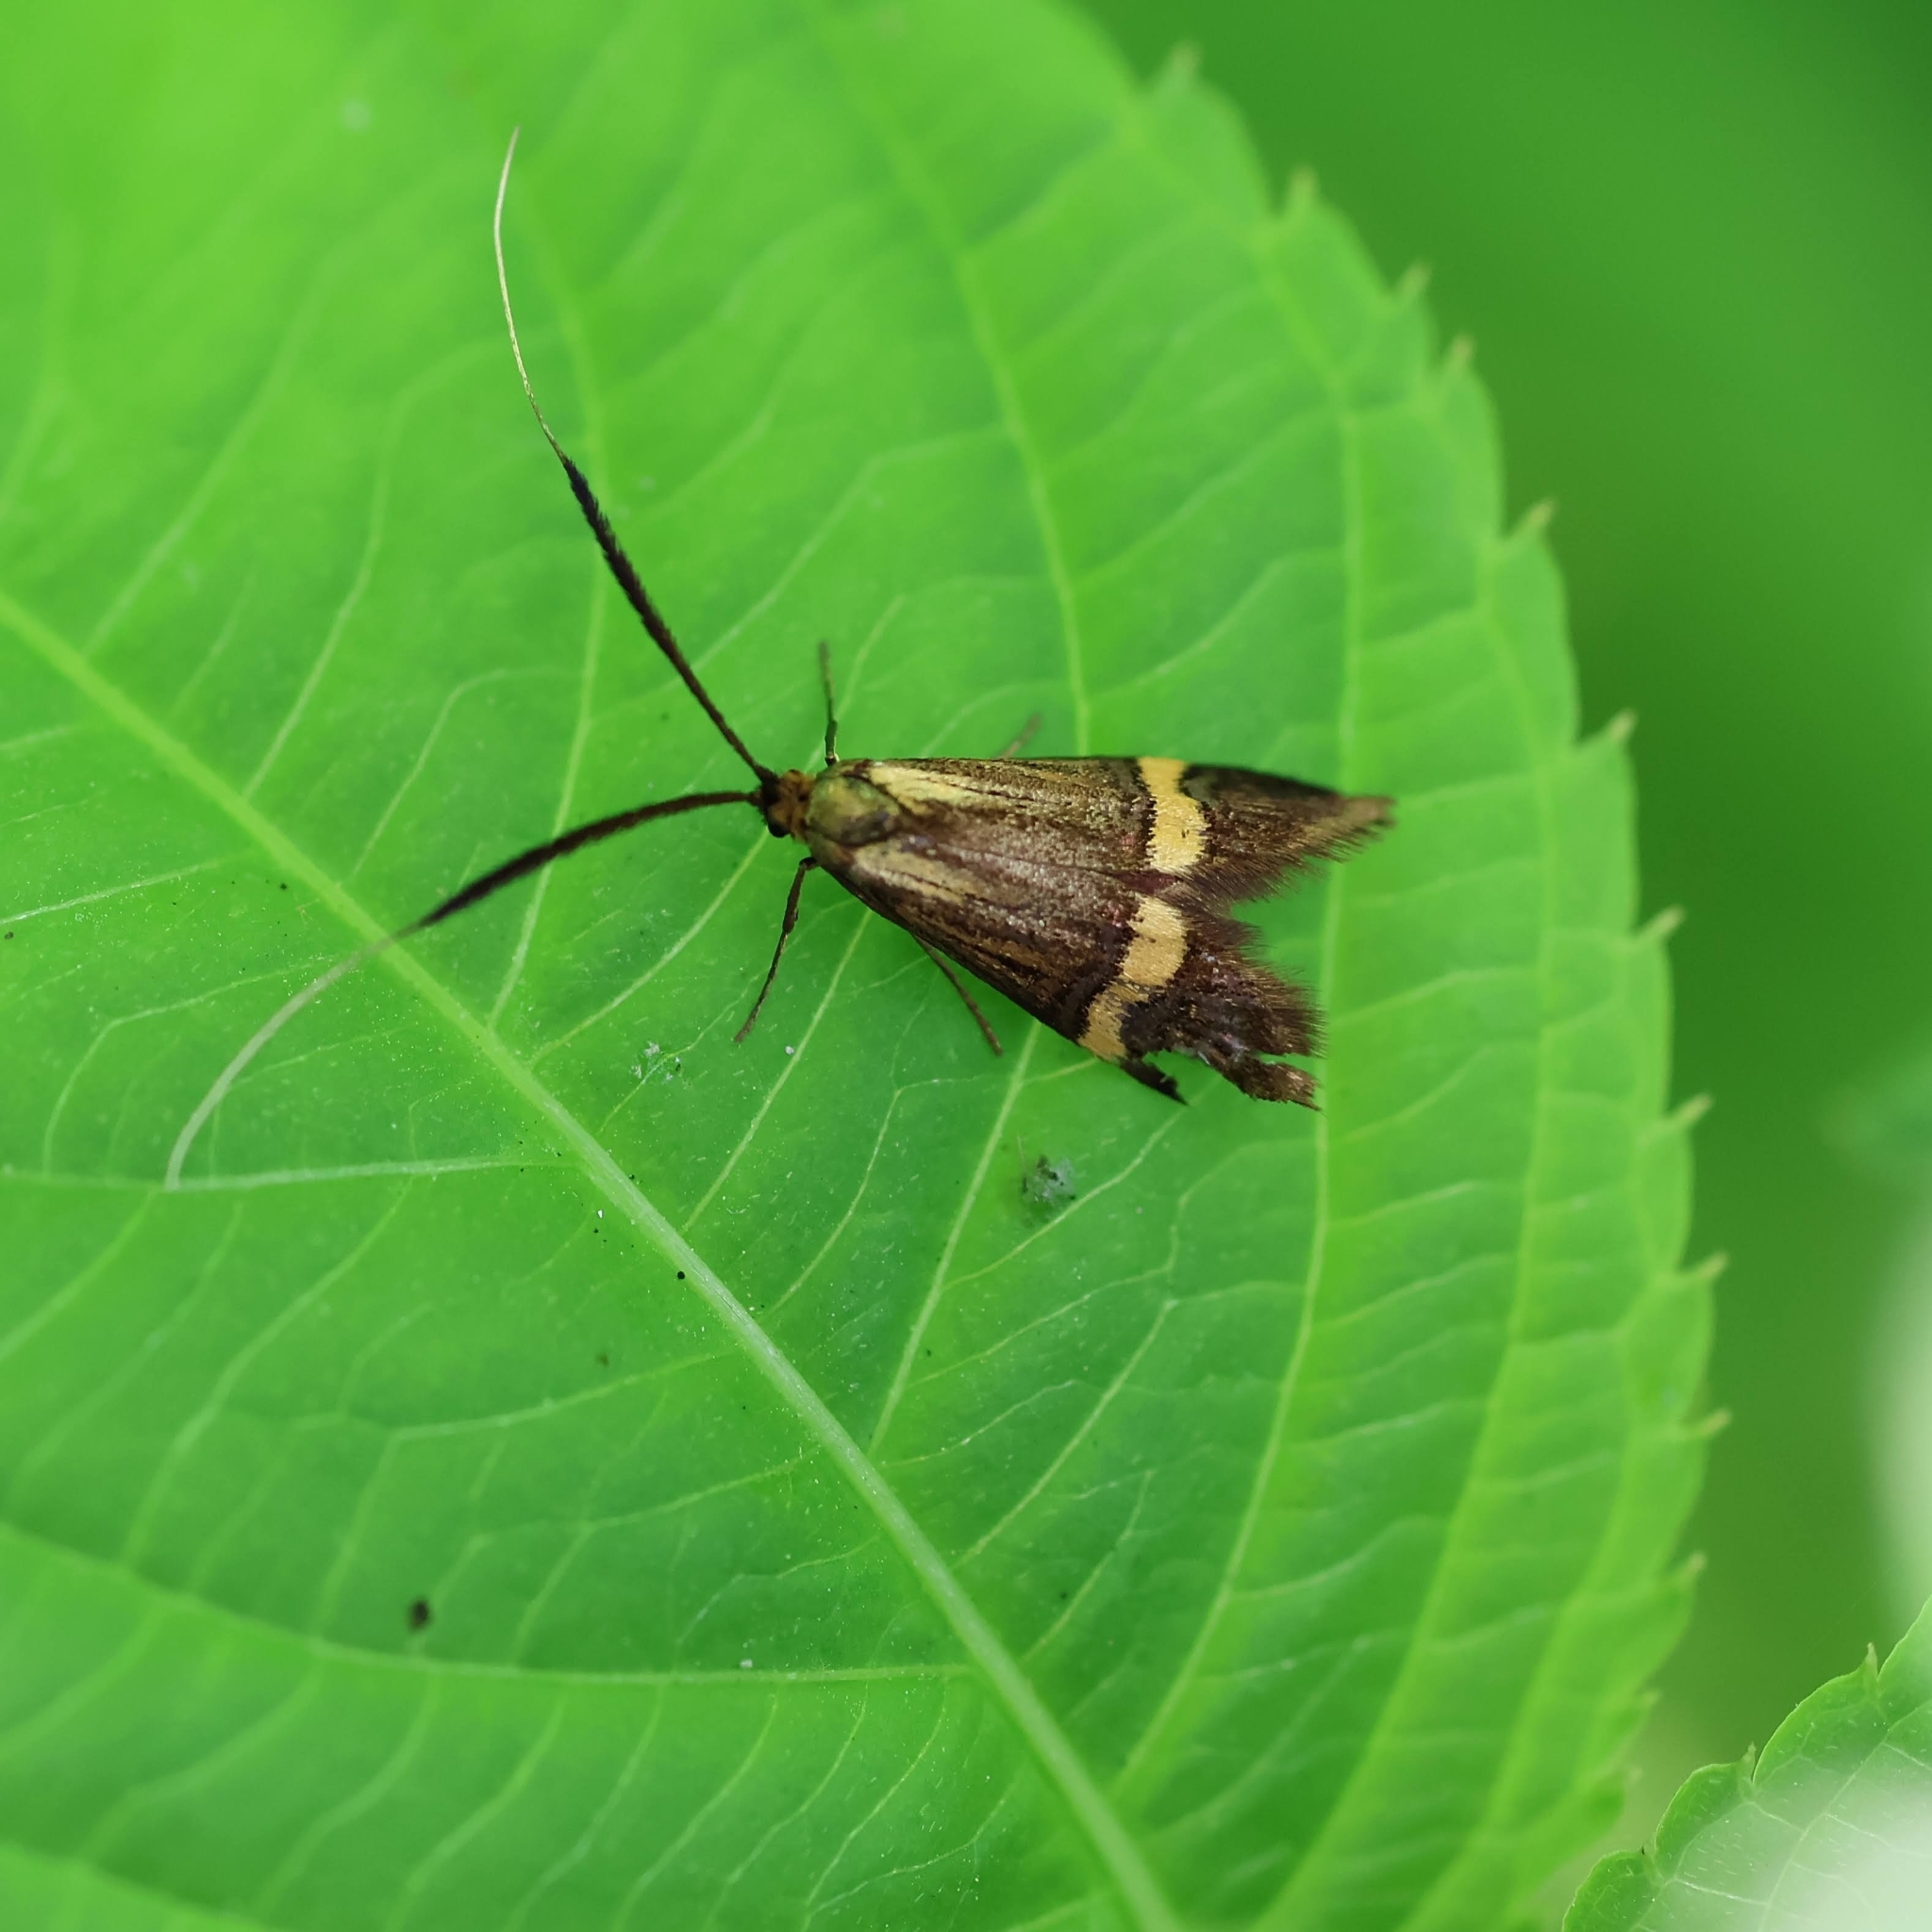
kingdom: Animalia
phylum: Arthropoda
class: Insecta
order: Lepidoptera
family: Adelidae
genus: Nemophora
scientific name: Nemophora degeerella
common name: Yellow-barred long-horn
